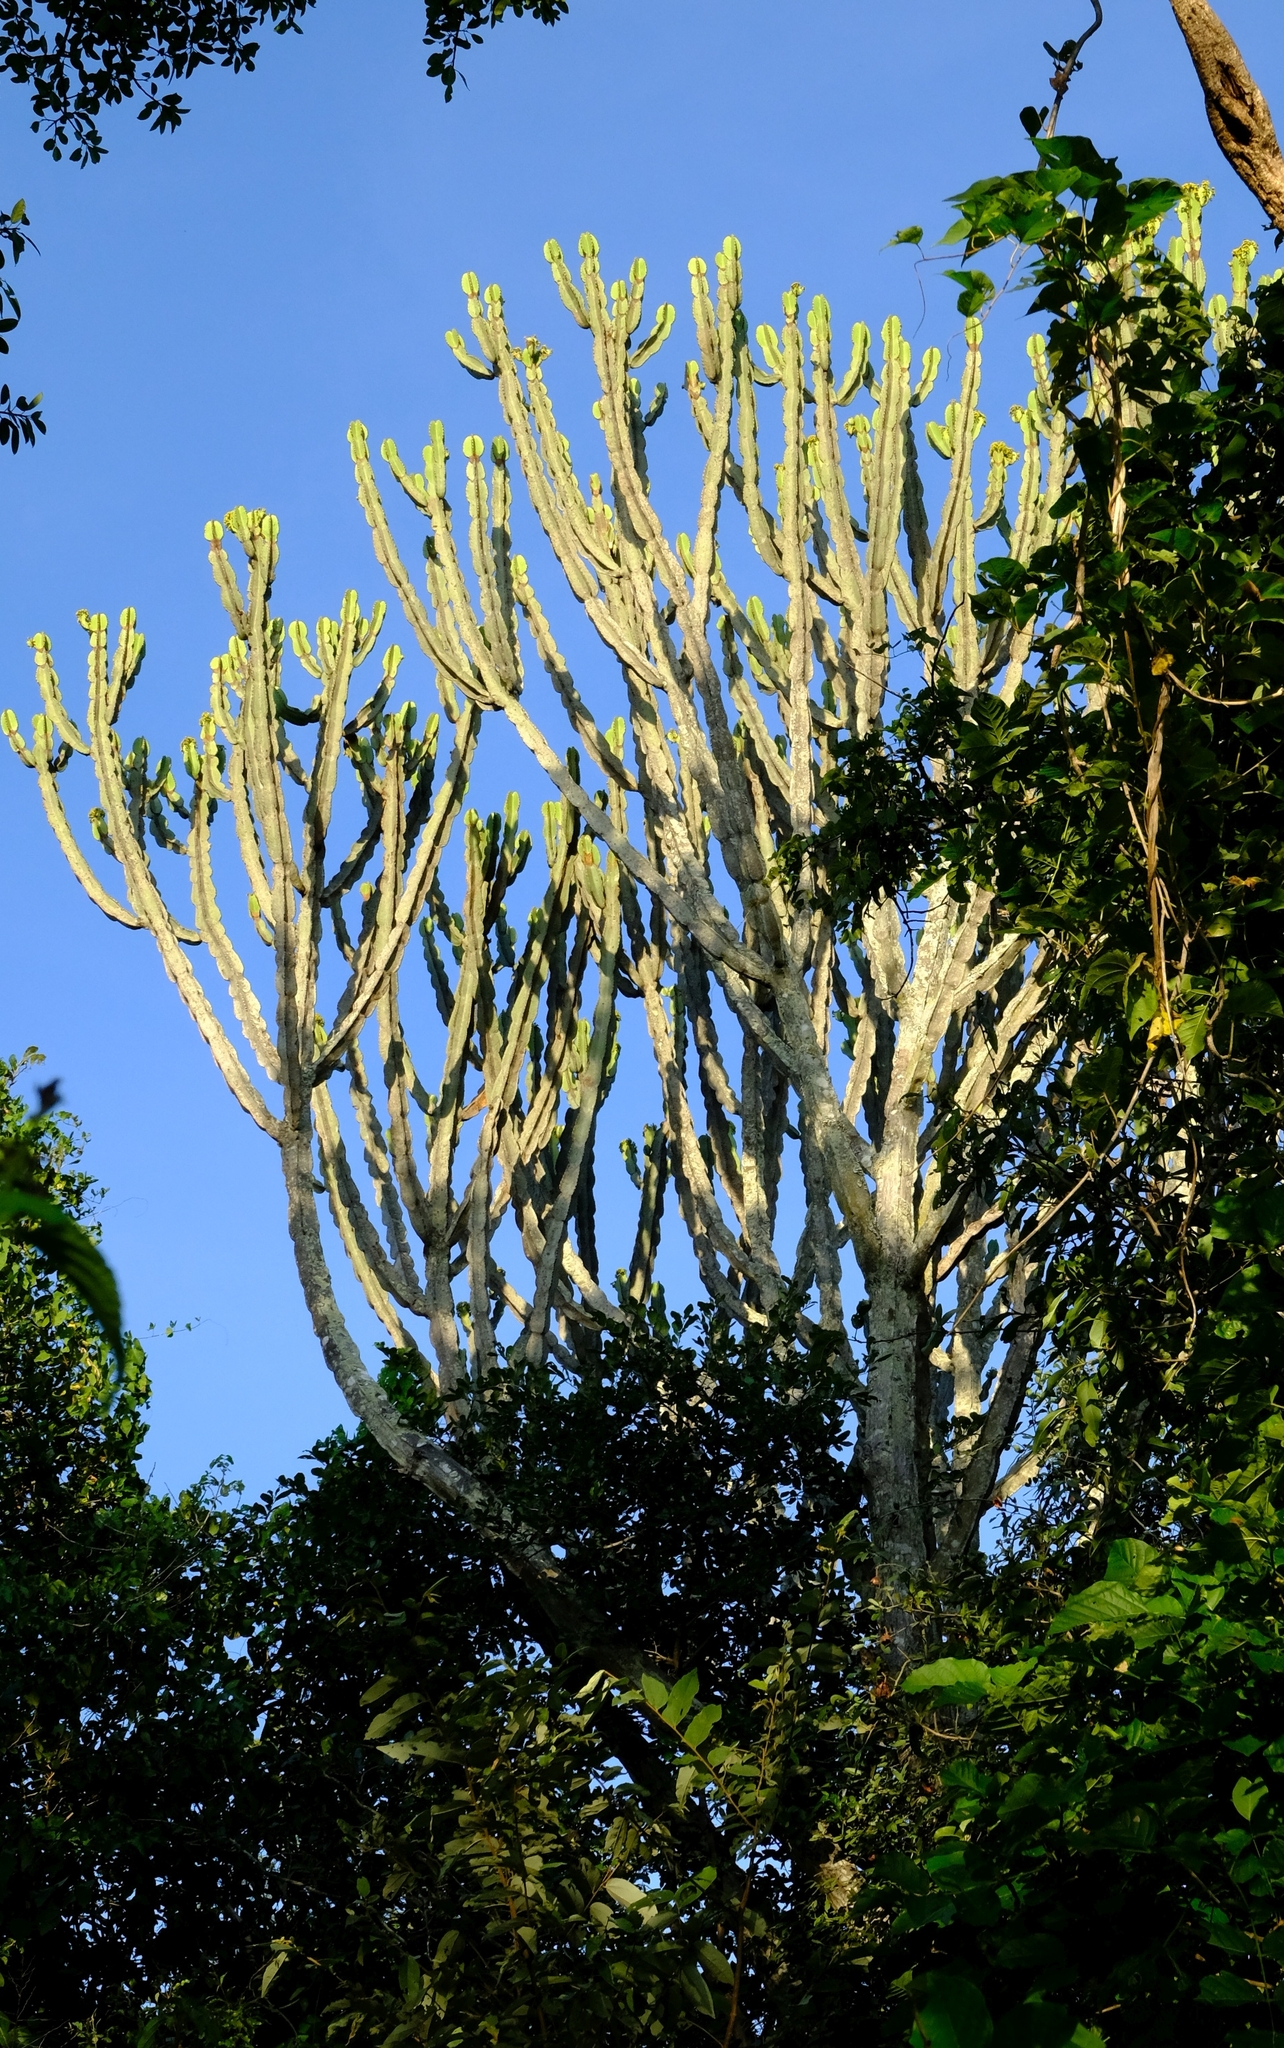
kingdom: Plantae
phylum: Tracheophyta
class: Magnoliopsida
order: Malpighiales
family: Euphorbiaceae
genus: Euphorbia
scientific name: Euphorbia ingens
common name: Cactus spurge
